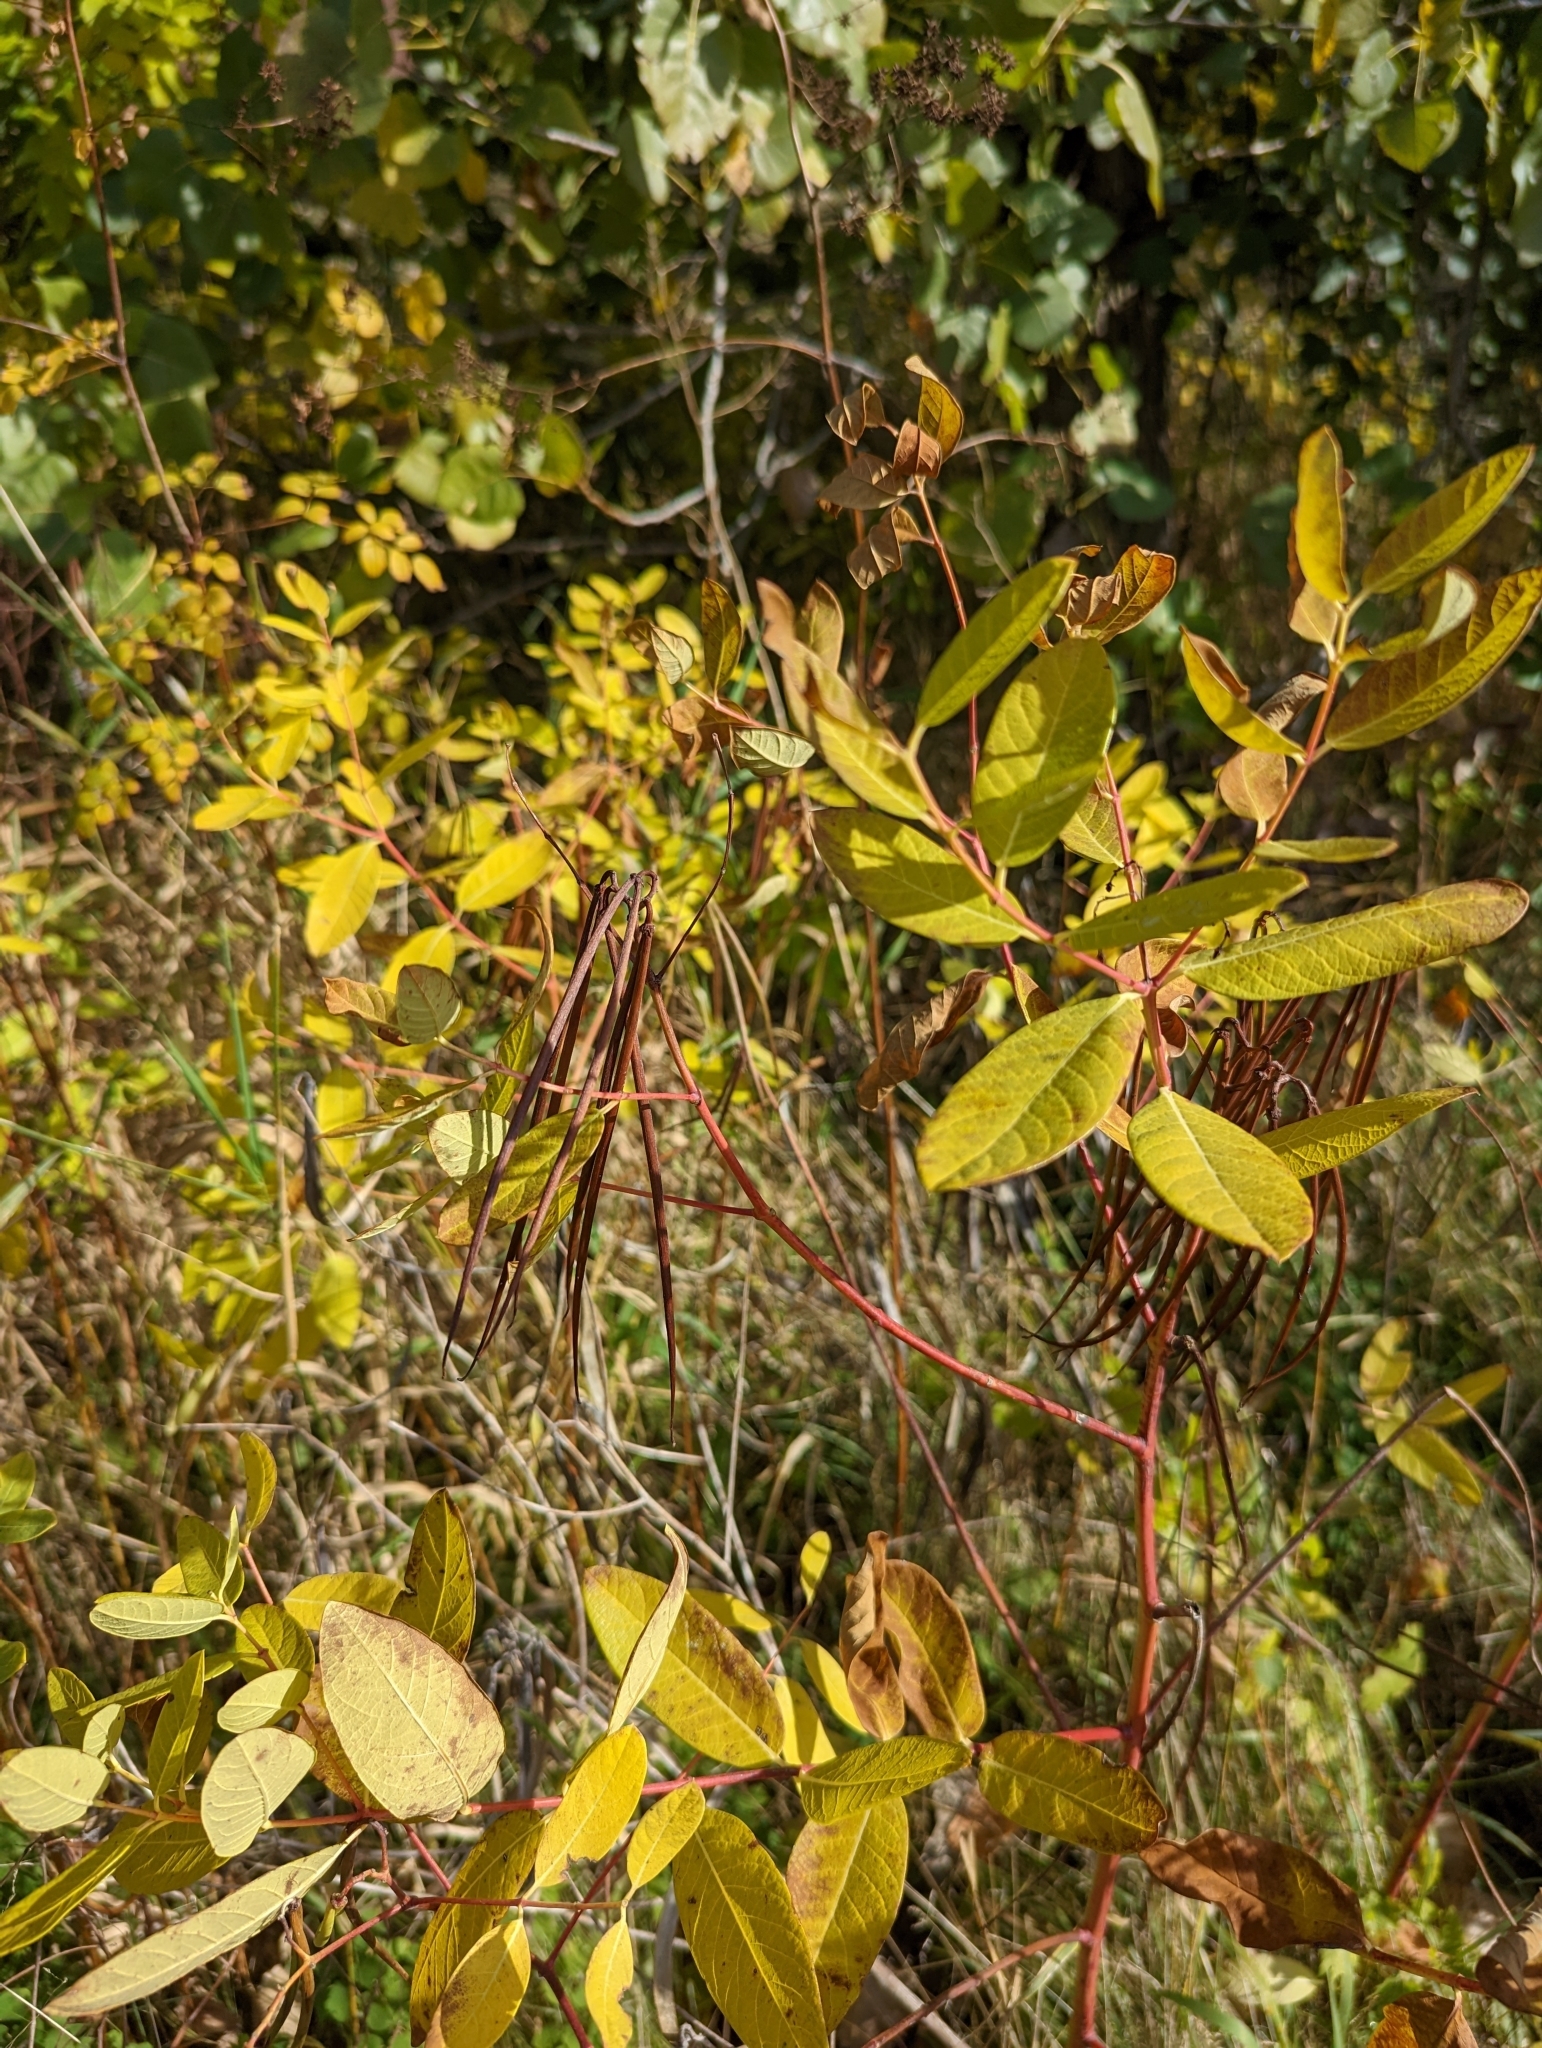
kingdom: Plantae
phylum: Tracheophyta
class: Magnoliopsida
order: Gentianales
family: Apocynaceae
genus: Apocynum
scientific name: Apocynum cannabinum
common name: Hemp dogbane
